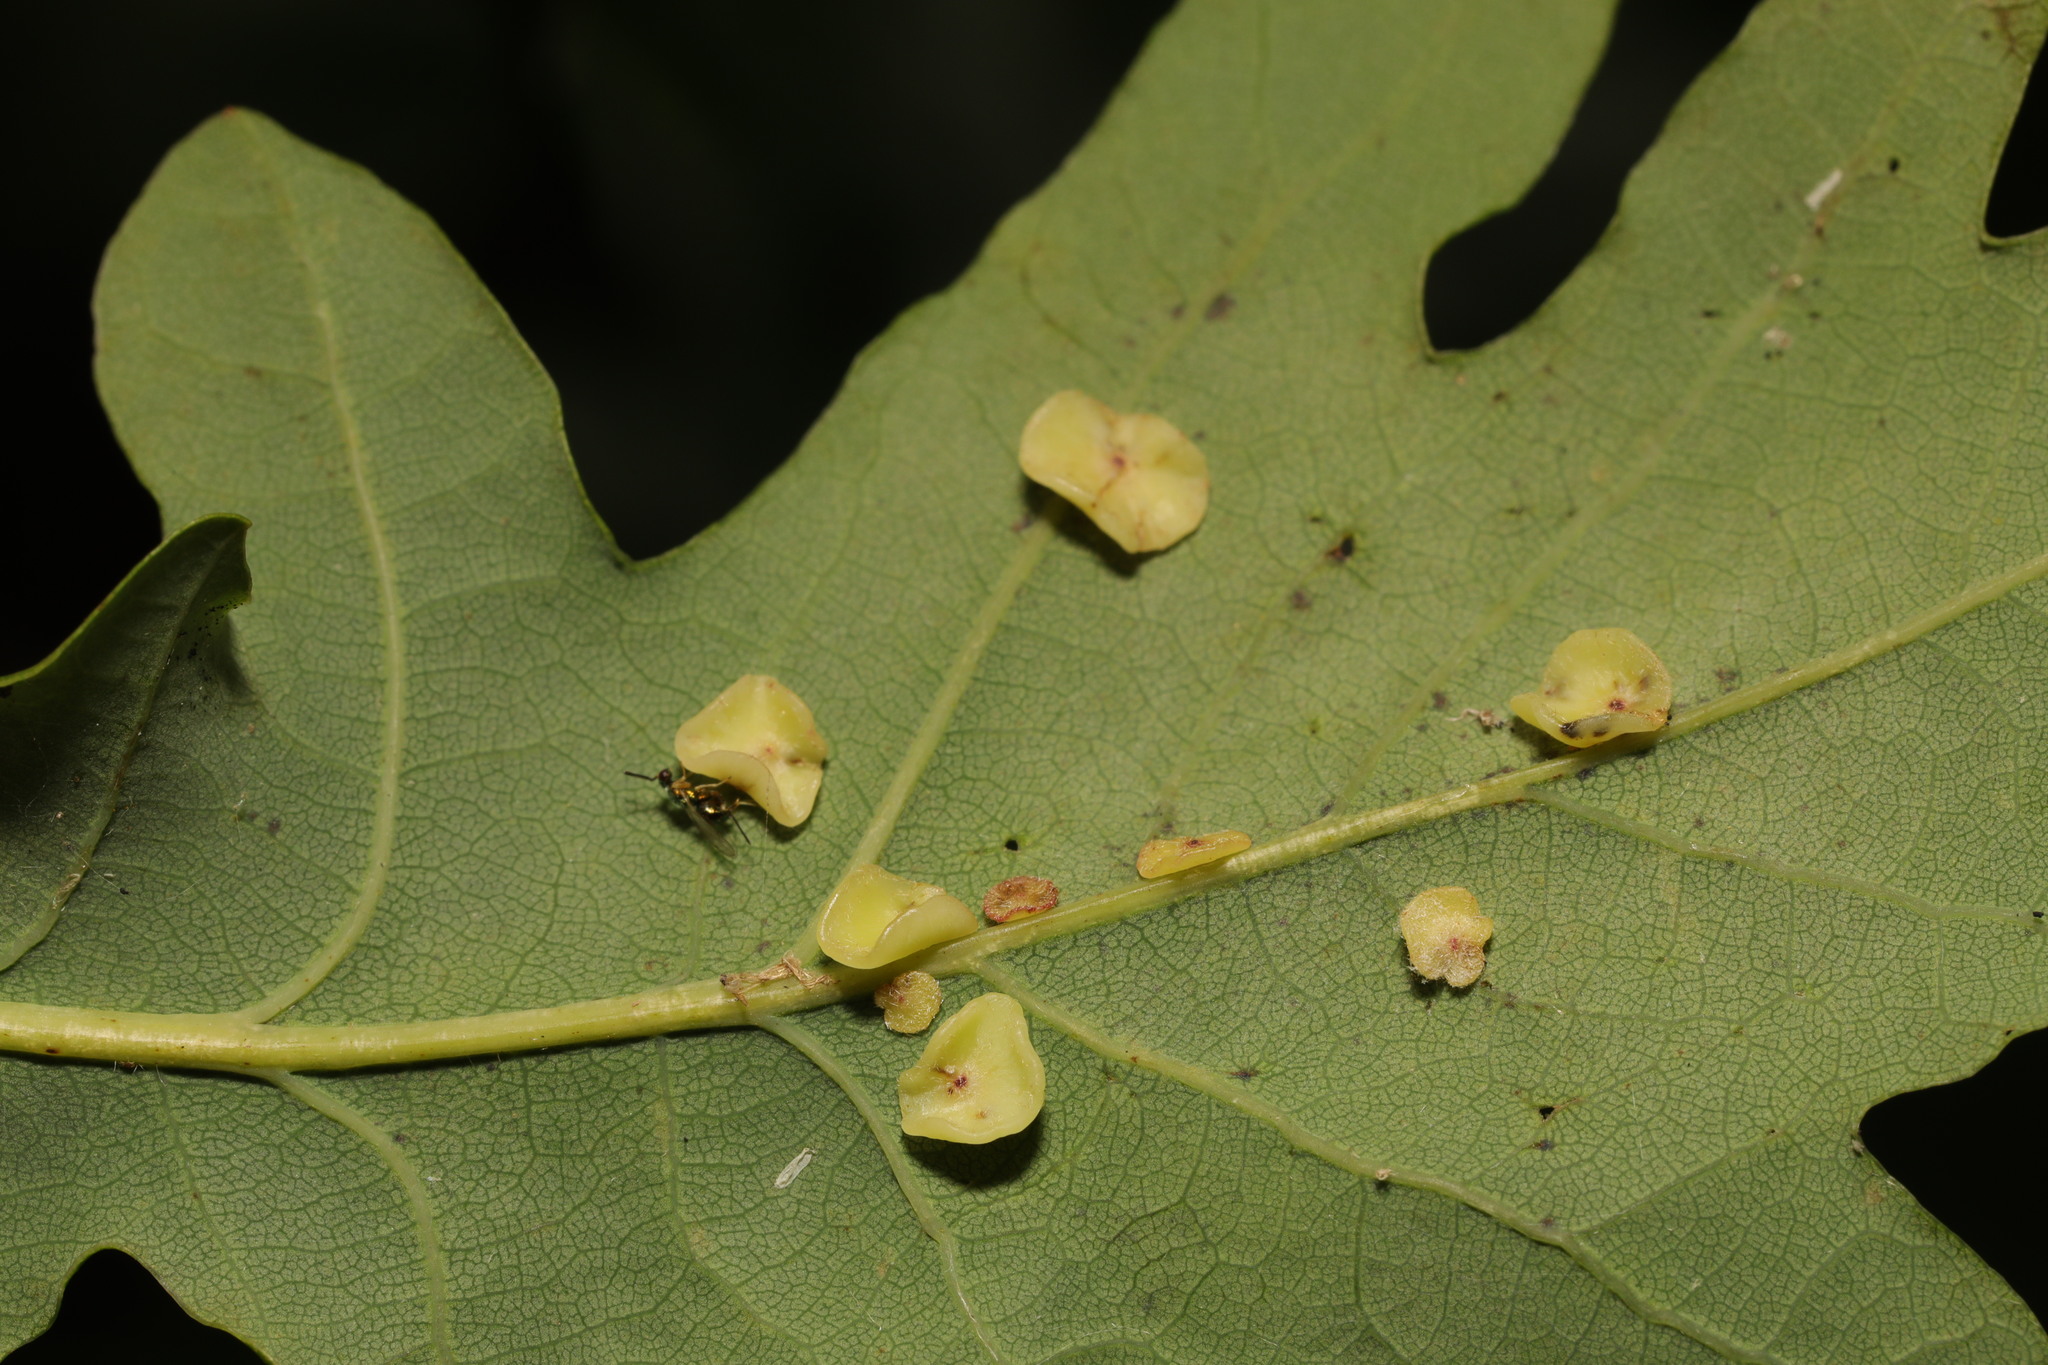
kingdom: Animalia
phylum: Arthropoda
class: Insecta
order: Hymenoptera
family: Cynipidae
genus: Neuroterus
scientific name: Neuroterus albipes
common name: Smooth spangle gall
